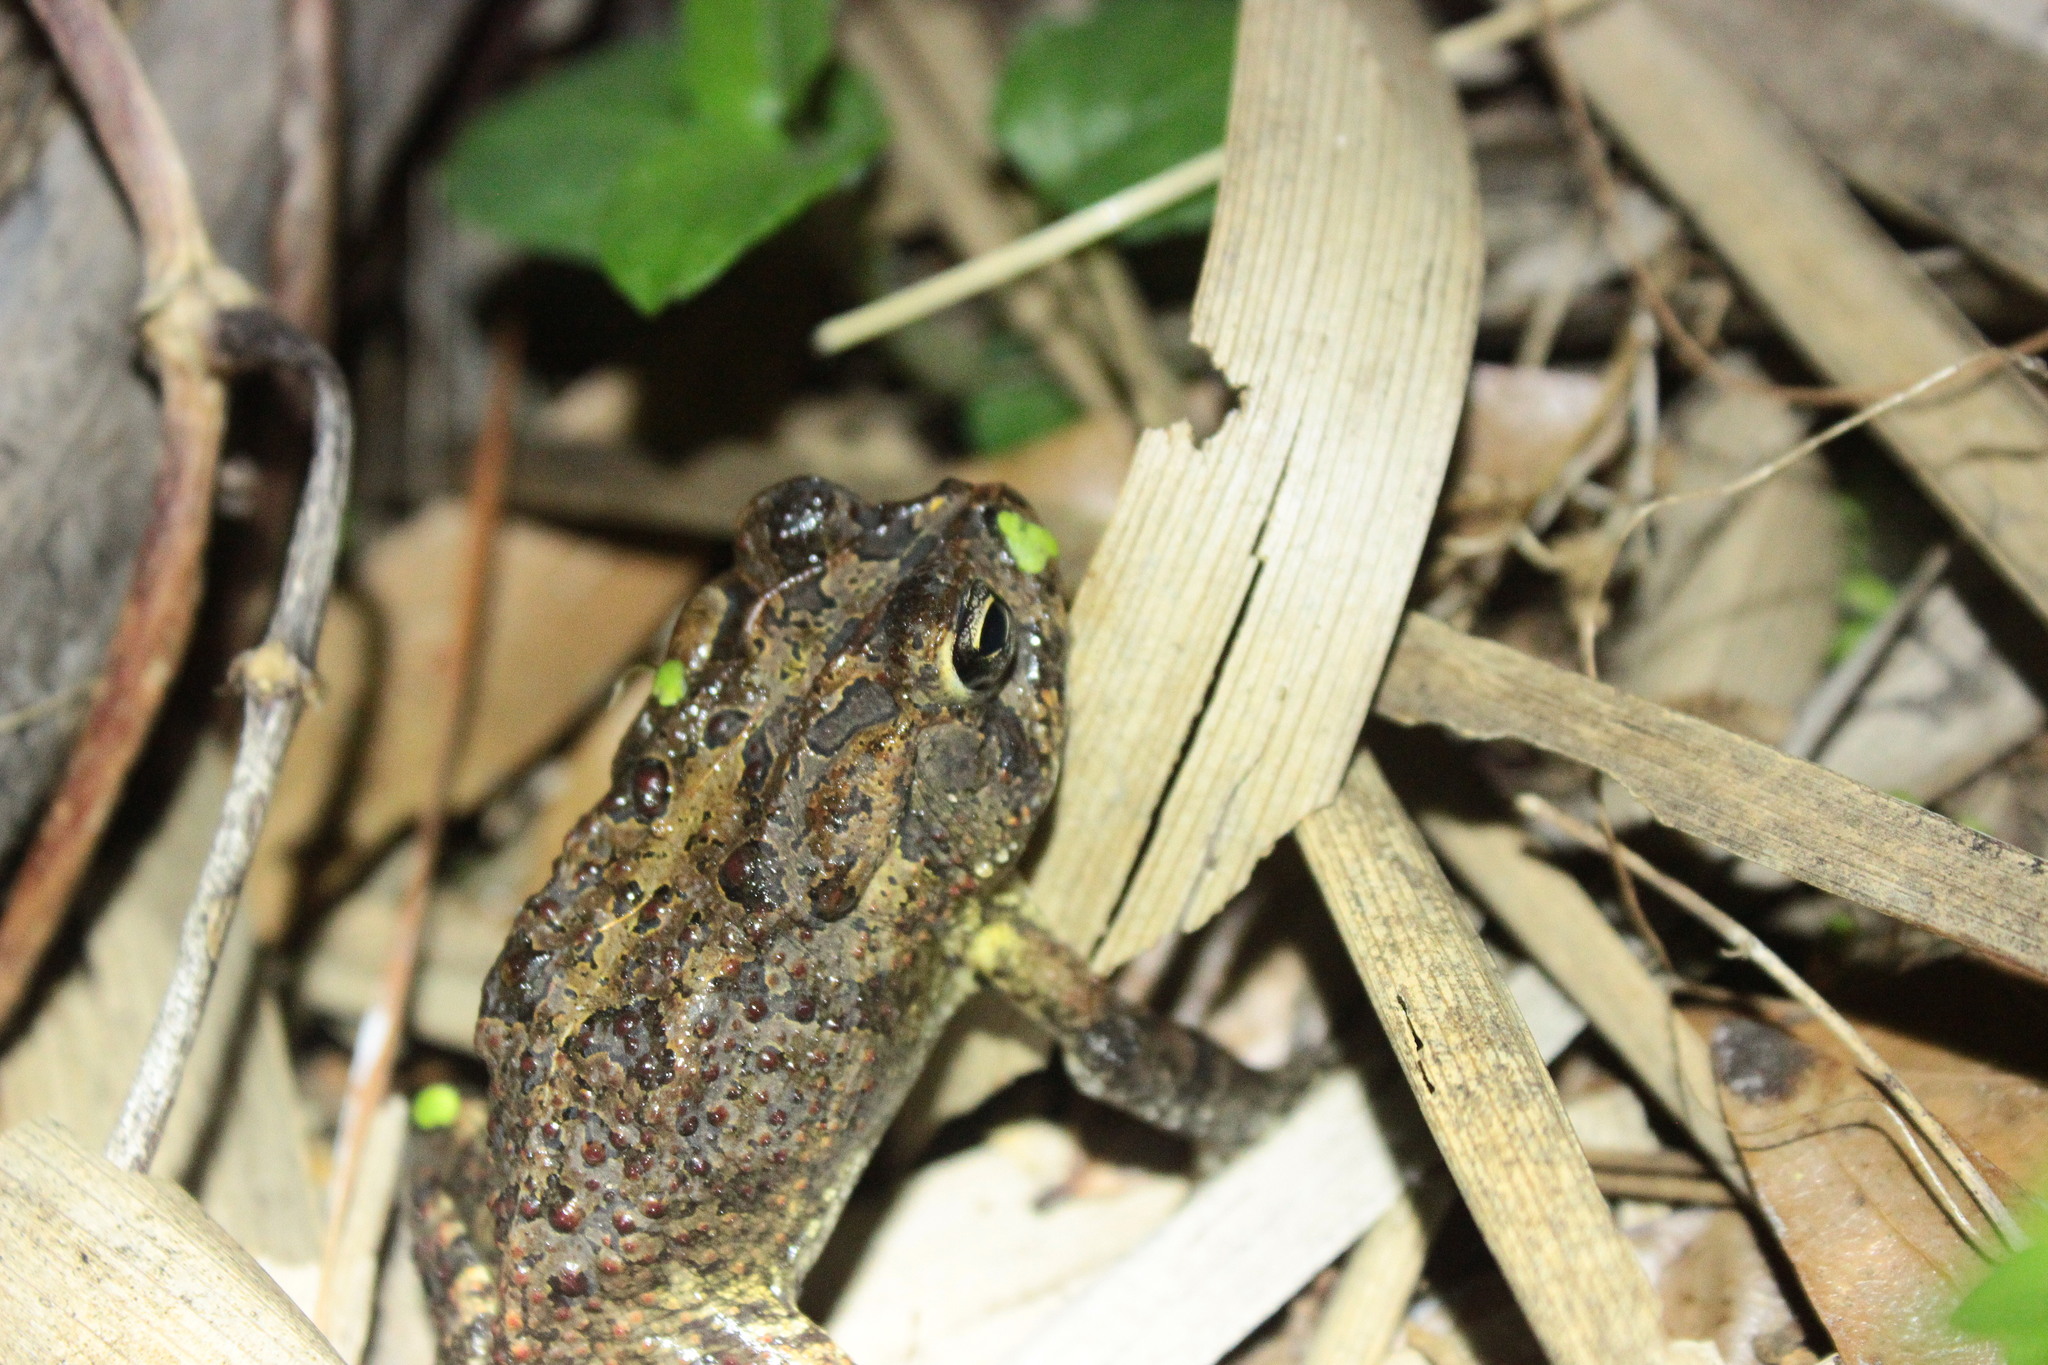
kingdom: Animalia
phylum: Chordata
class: Amphibia
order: Anura
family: Bufonidae
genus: Anaxyrus
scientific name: Anaxyrus terrestris
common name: Southern toad
